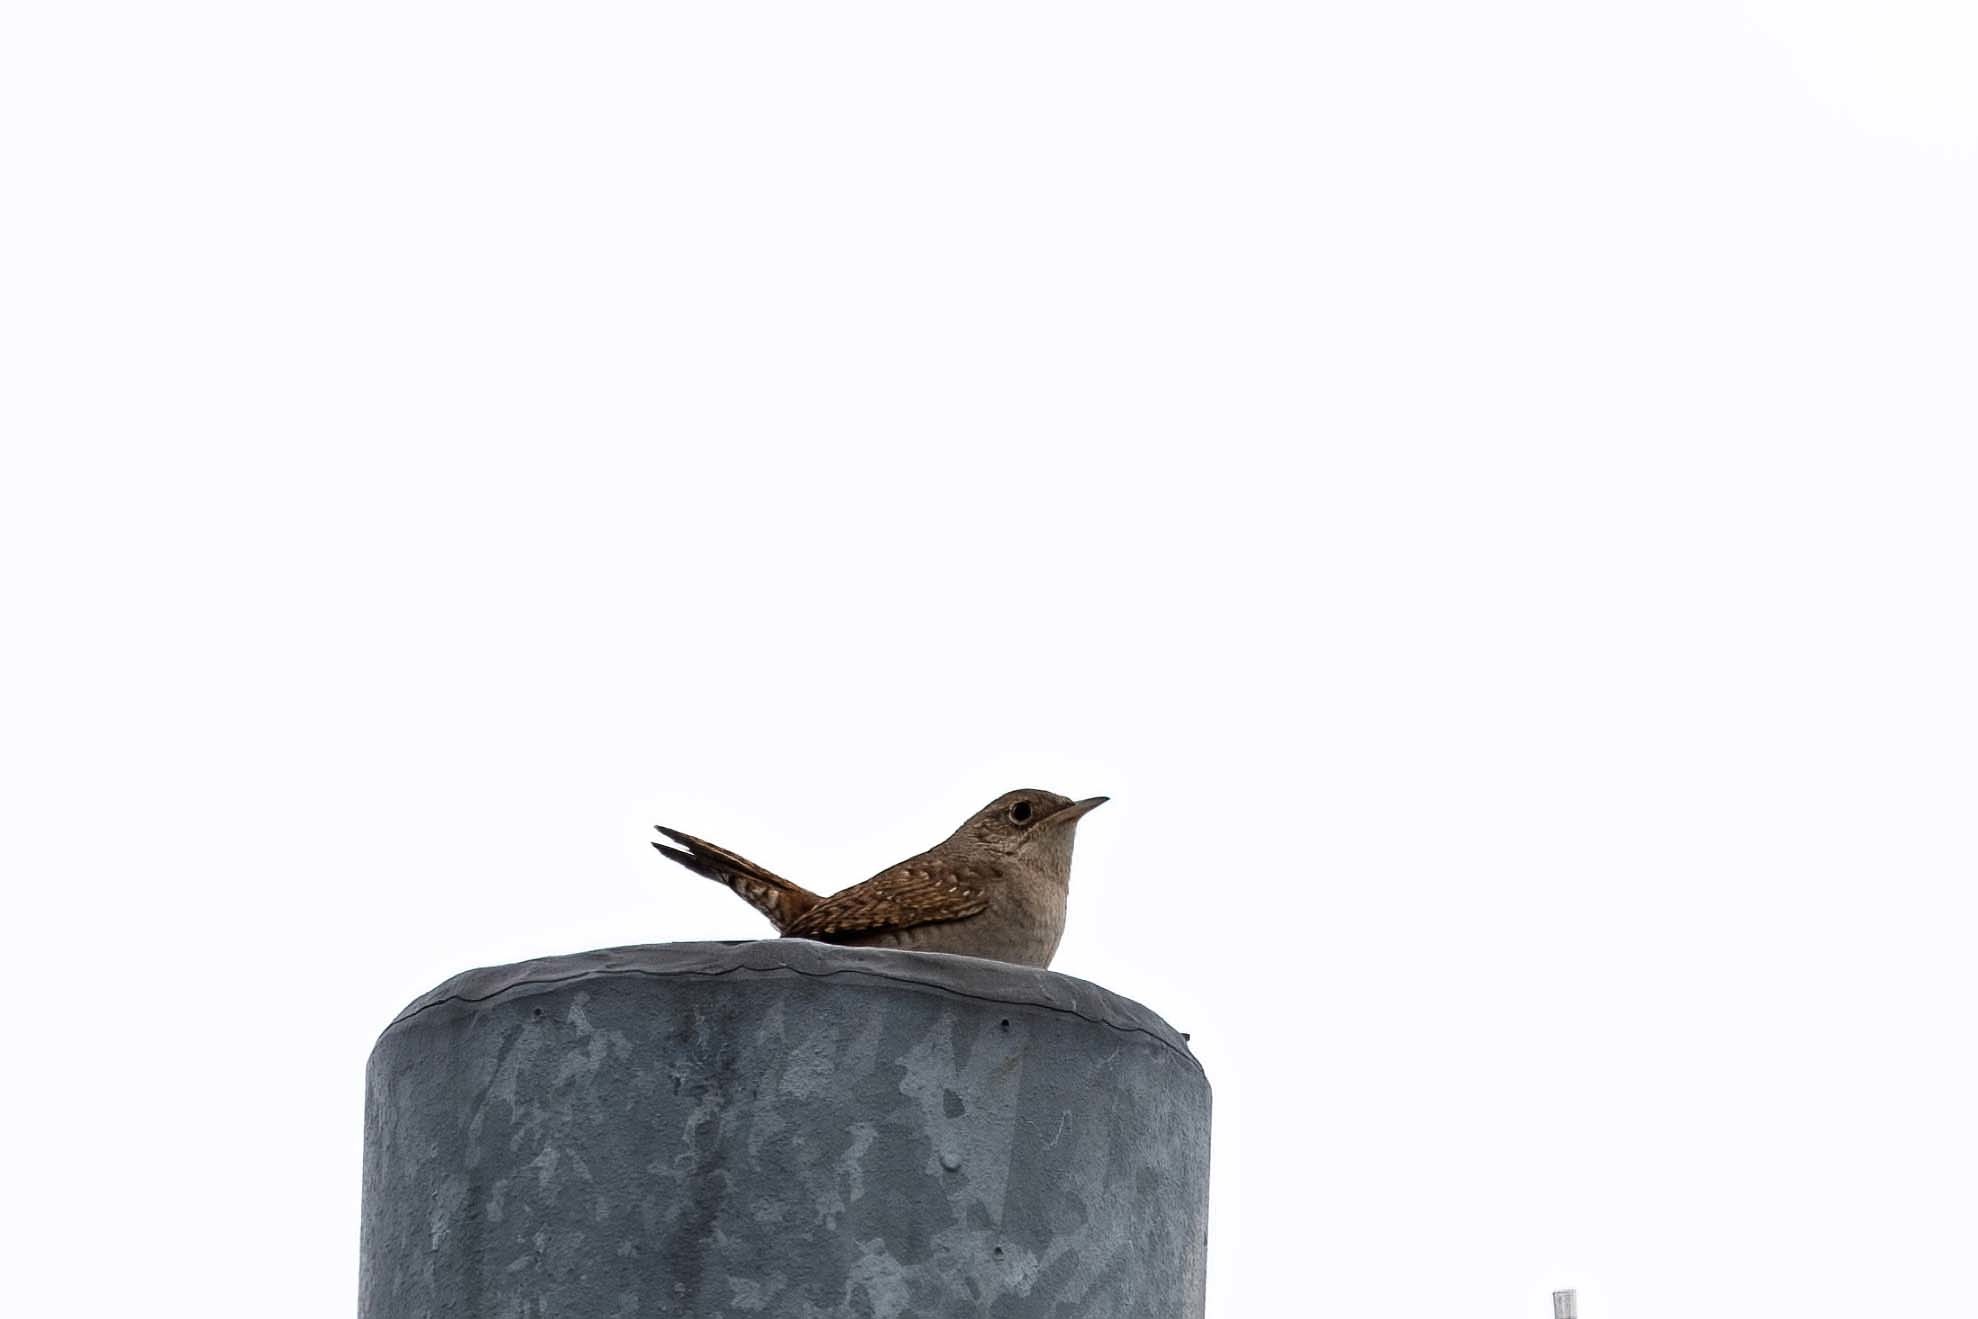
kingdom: Animalia
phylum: Chordata
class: Aves
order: Passeriformes
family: Troglodytidae
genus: Troglodytes
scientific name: Troglodytes aedon
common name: House wren
